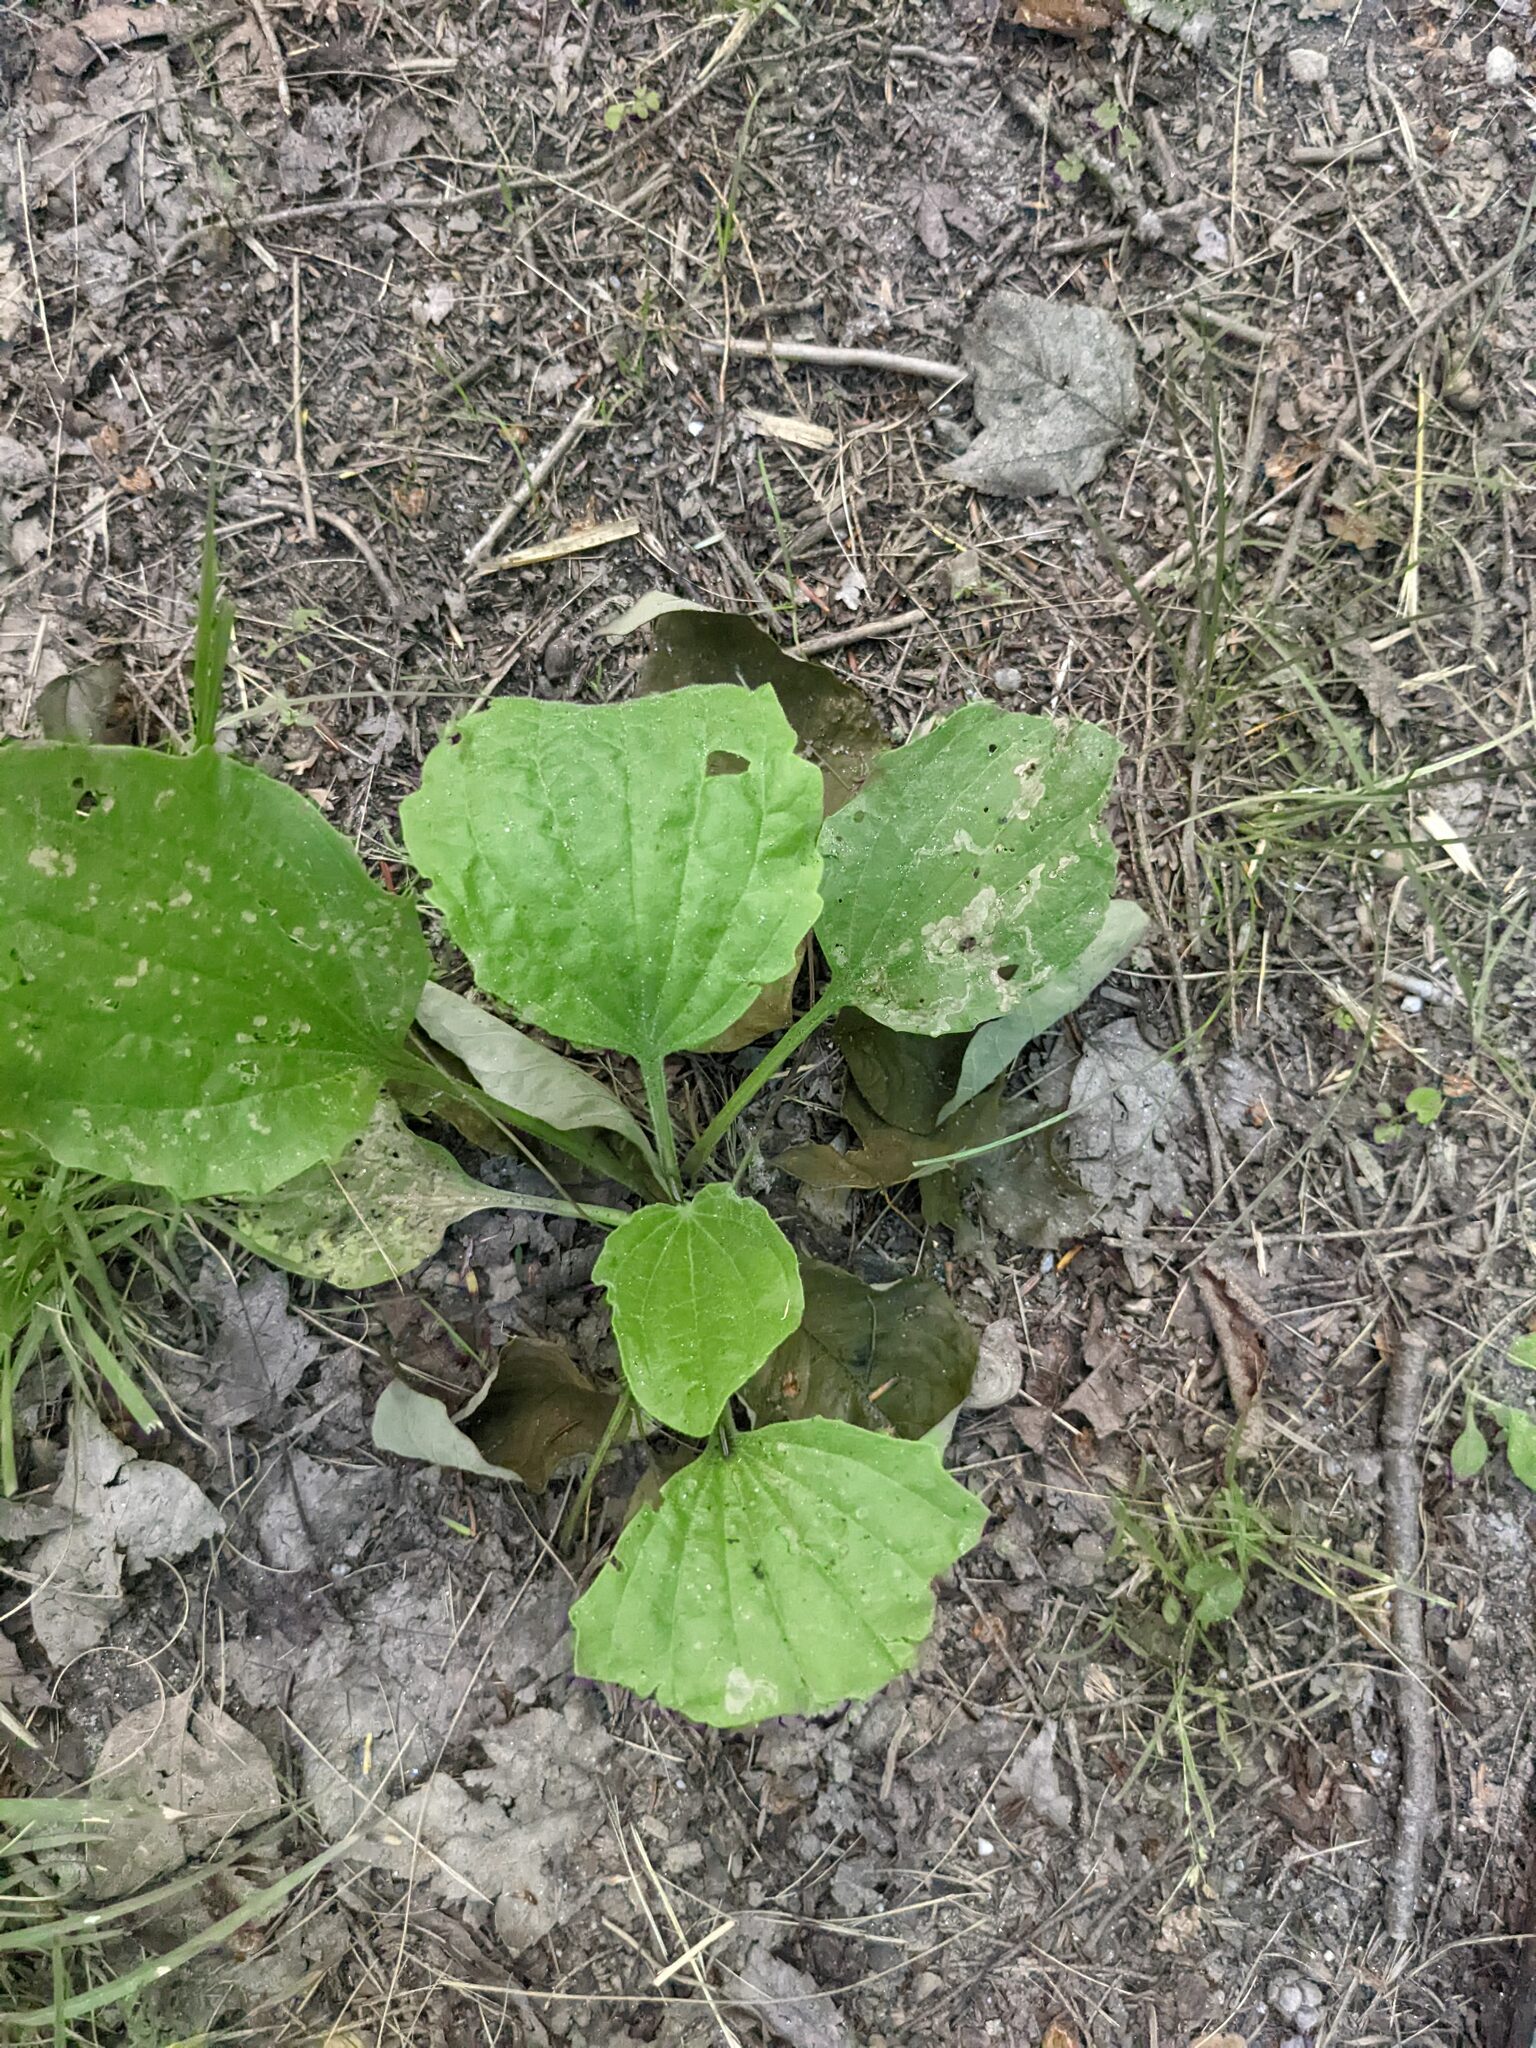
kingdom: Plantae
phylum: Tracheophyta
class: Magnoliopsida
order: Lamiales
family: Plantaginaceae
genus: Plantago
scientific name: Plantago major
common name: Common plantain
